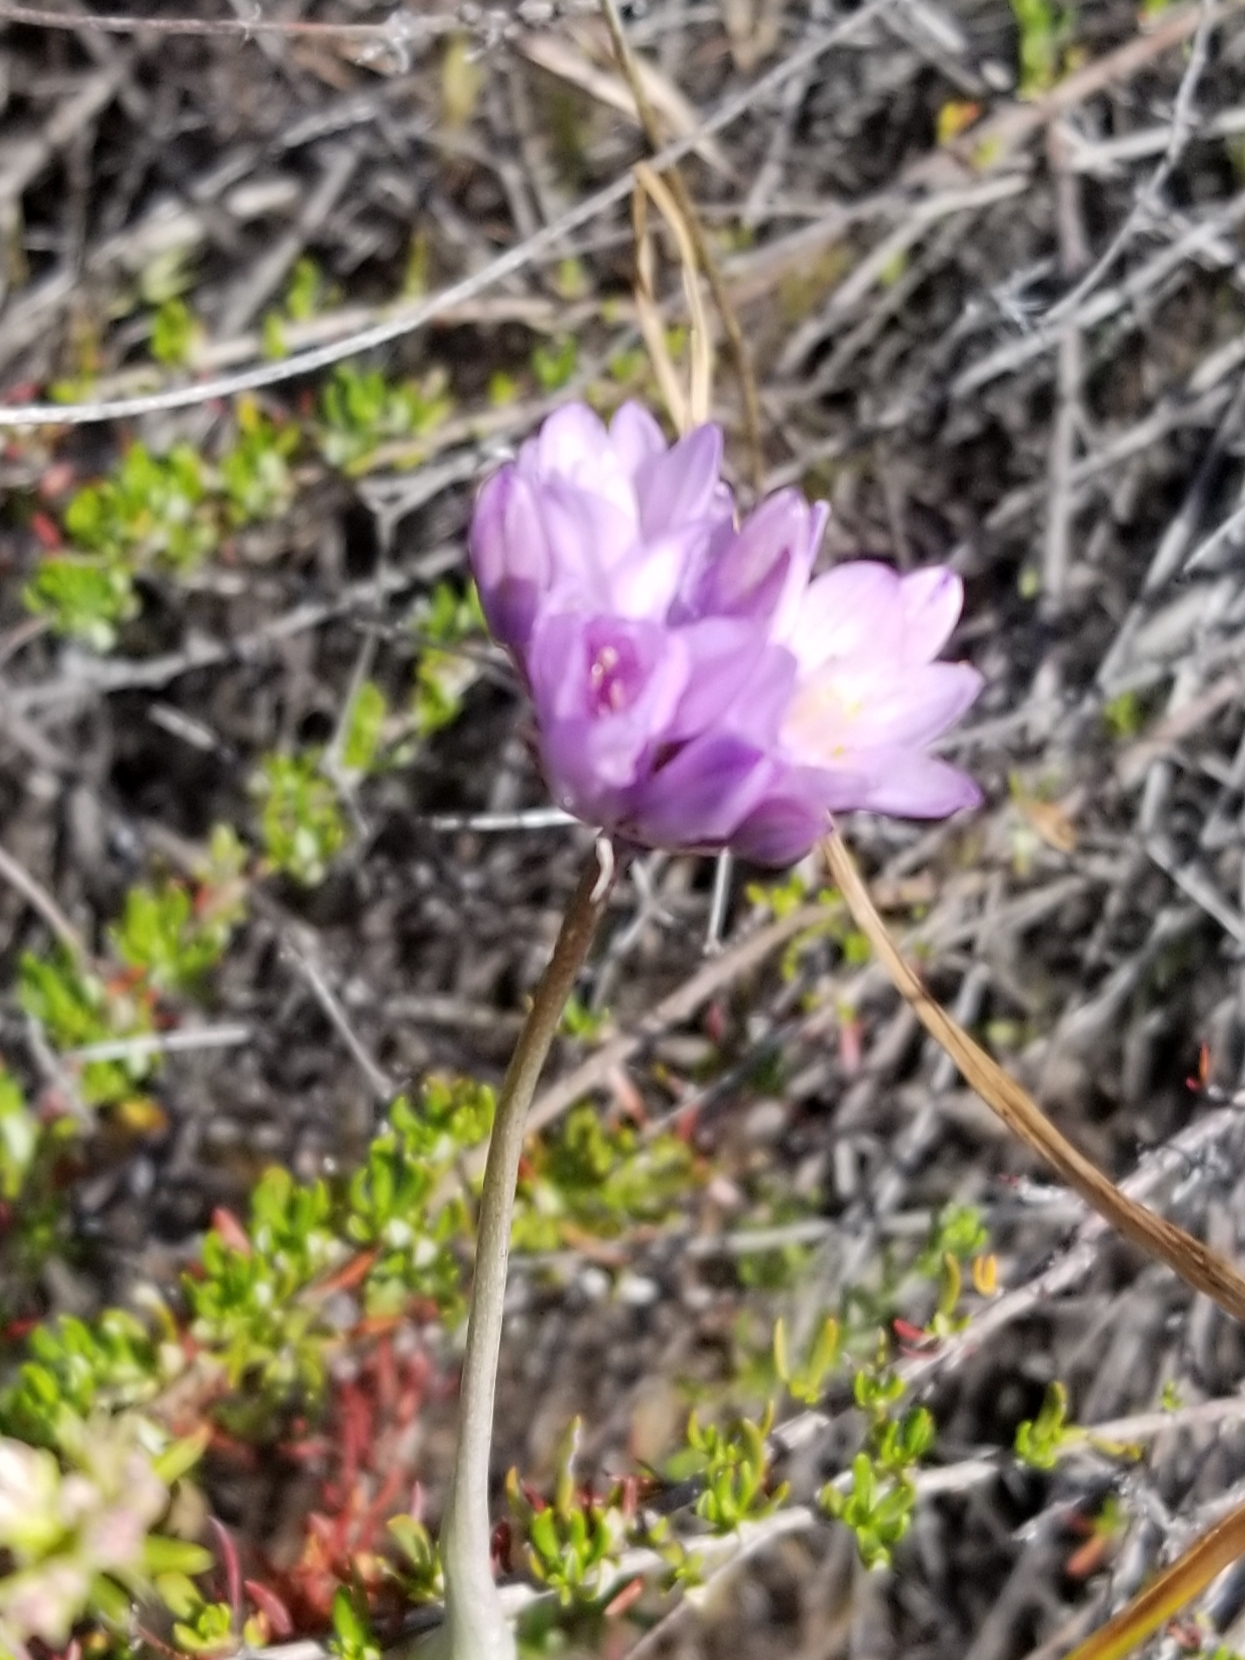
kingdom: Plantae
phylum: Tracheophyta
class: Liliopsida
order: Asparagales
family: Asparagaceae
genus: Dipterostemon
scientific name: Dipterostemon capitatus
